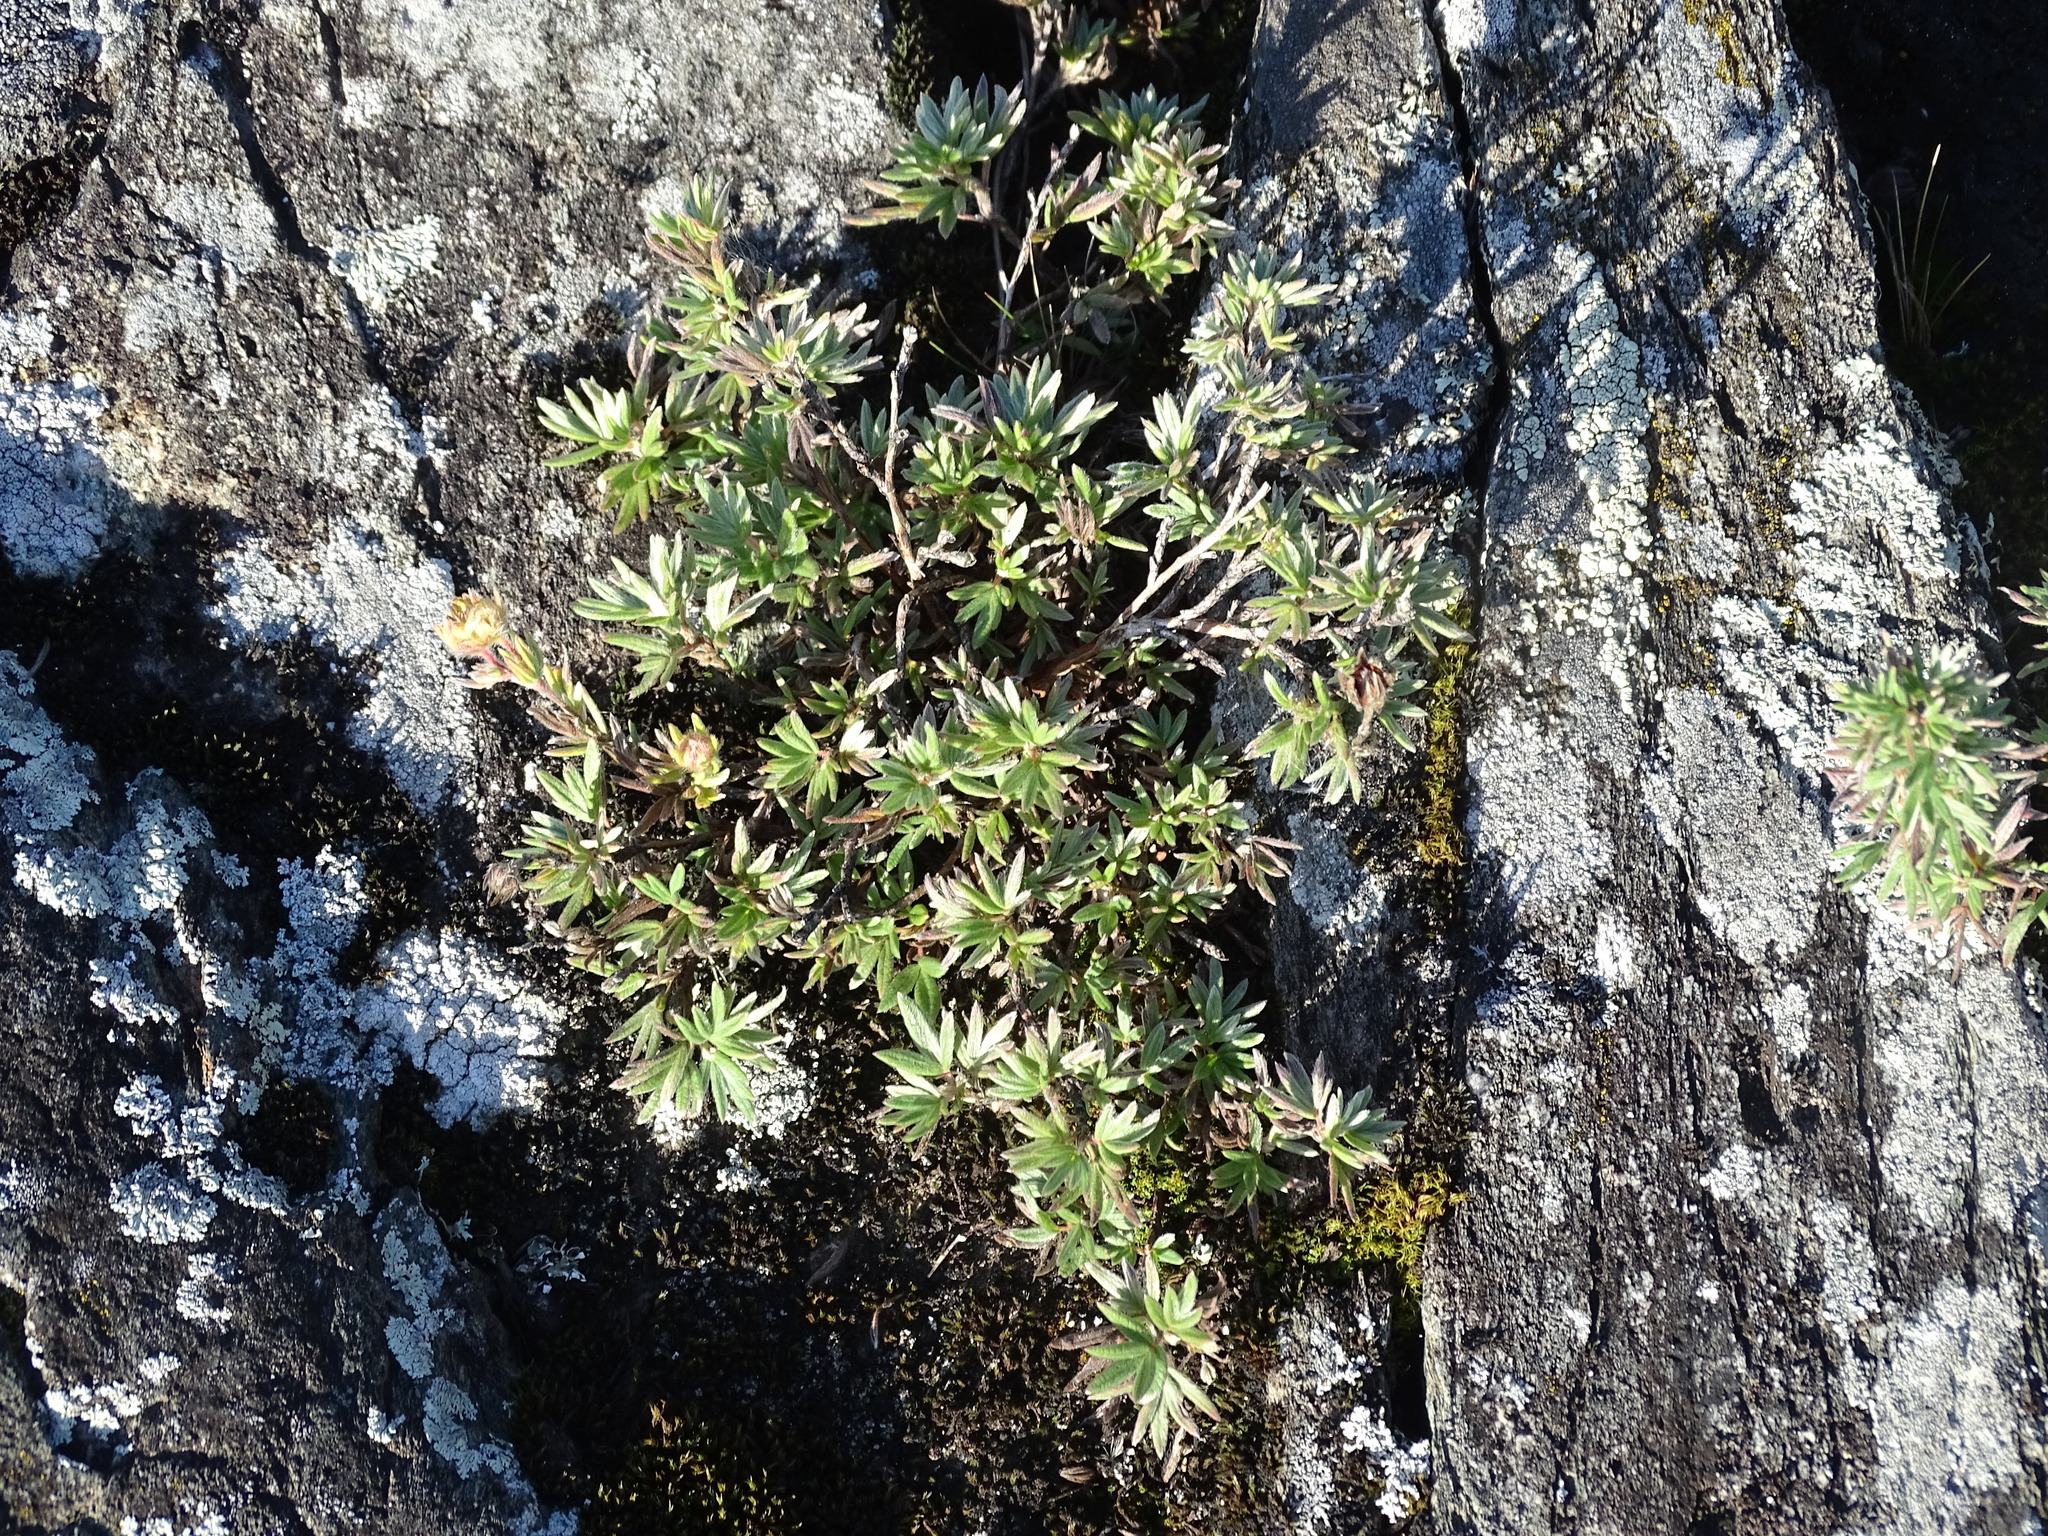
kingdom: Plantae
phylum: Tracheophyta
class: Magnoliopsida
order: Rosales
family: Rosaceae
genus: Dasiphora
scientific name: Dasiphora fruticosa
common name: Shrubby cinquefoil
